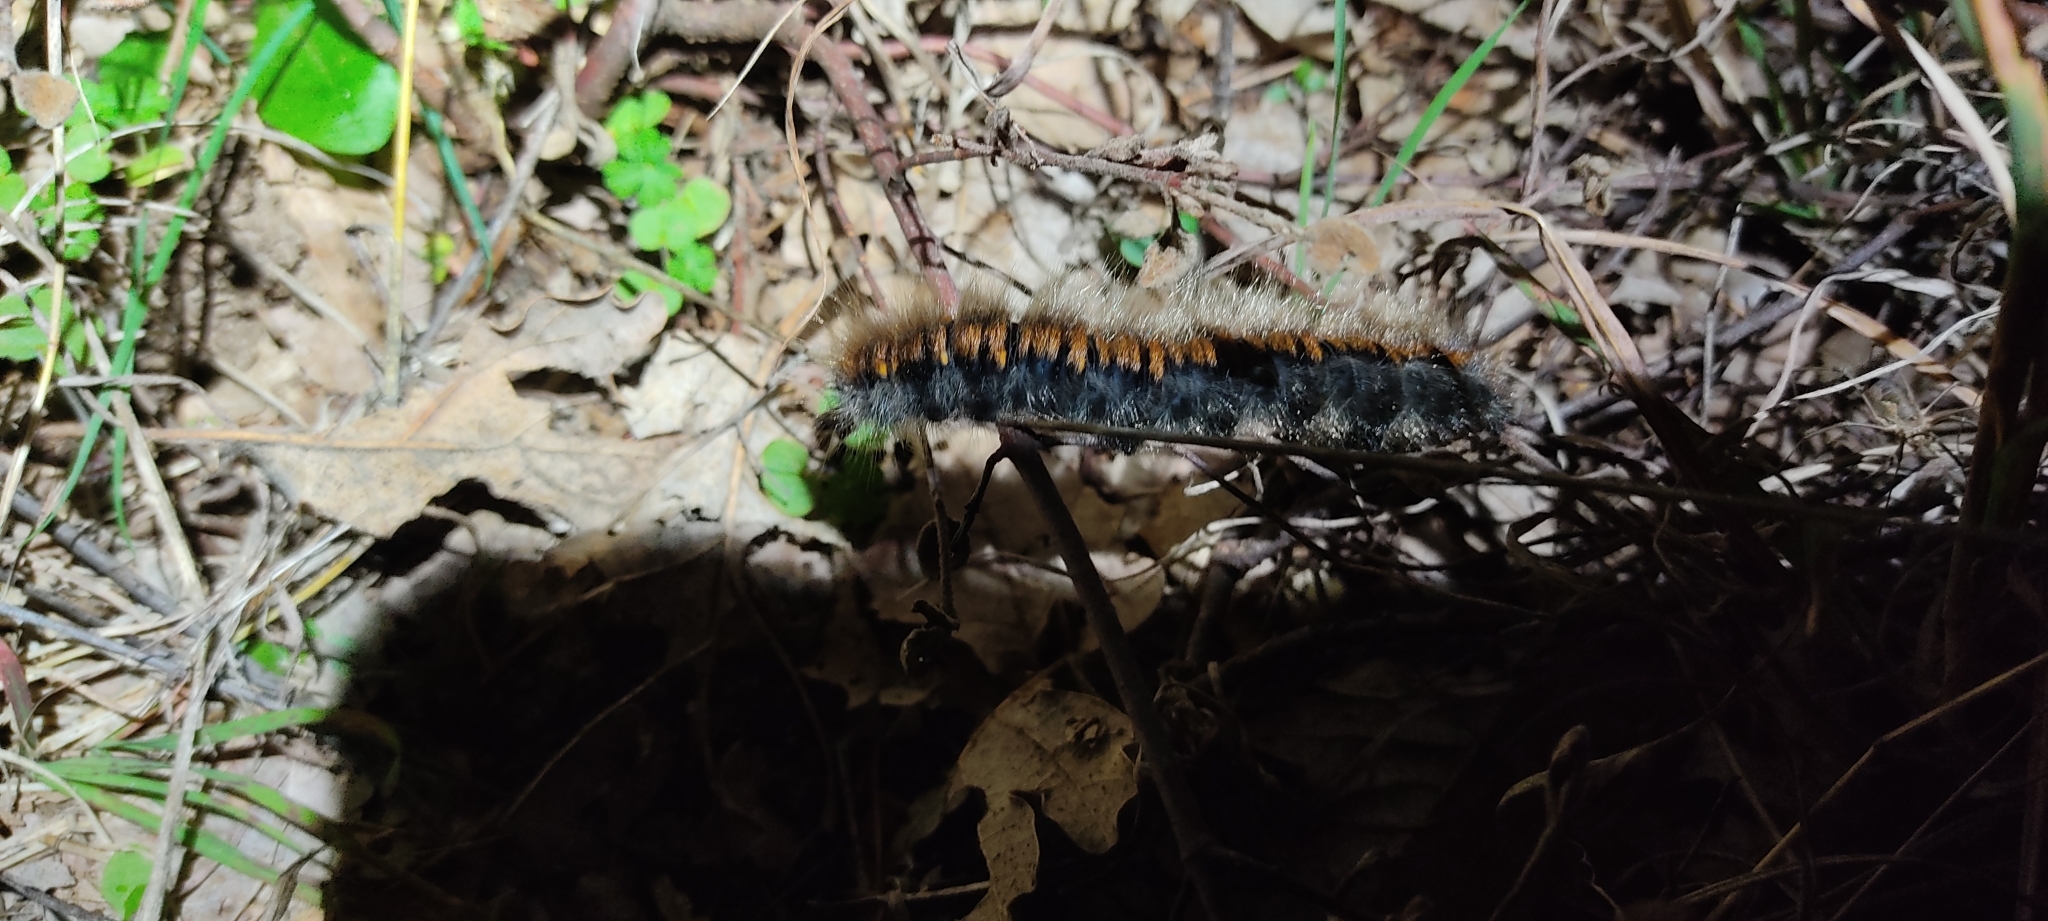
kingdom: Animalia
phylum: Arthropoda
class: Insecta
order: Lepidoptera
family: Lasiocampidae
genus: Macrothylacia
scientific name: Macrothylacia rubi
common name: Fox moth
